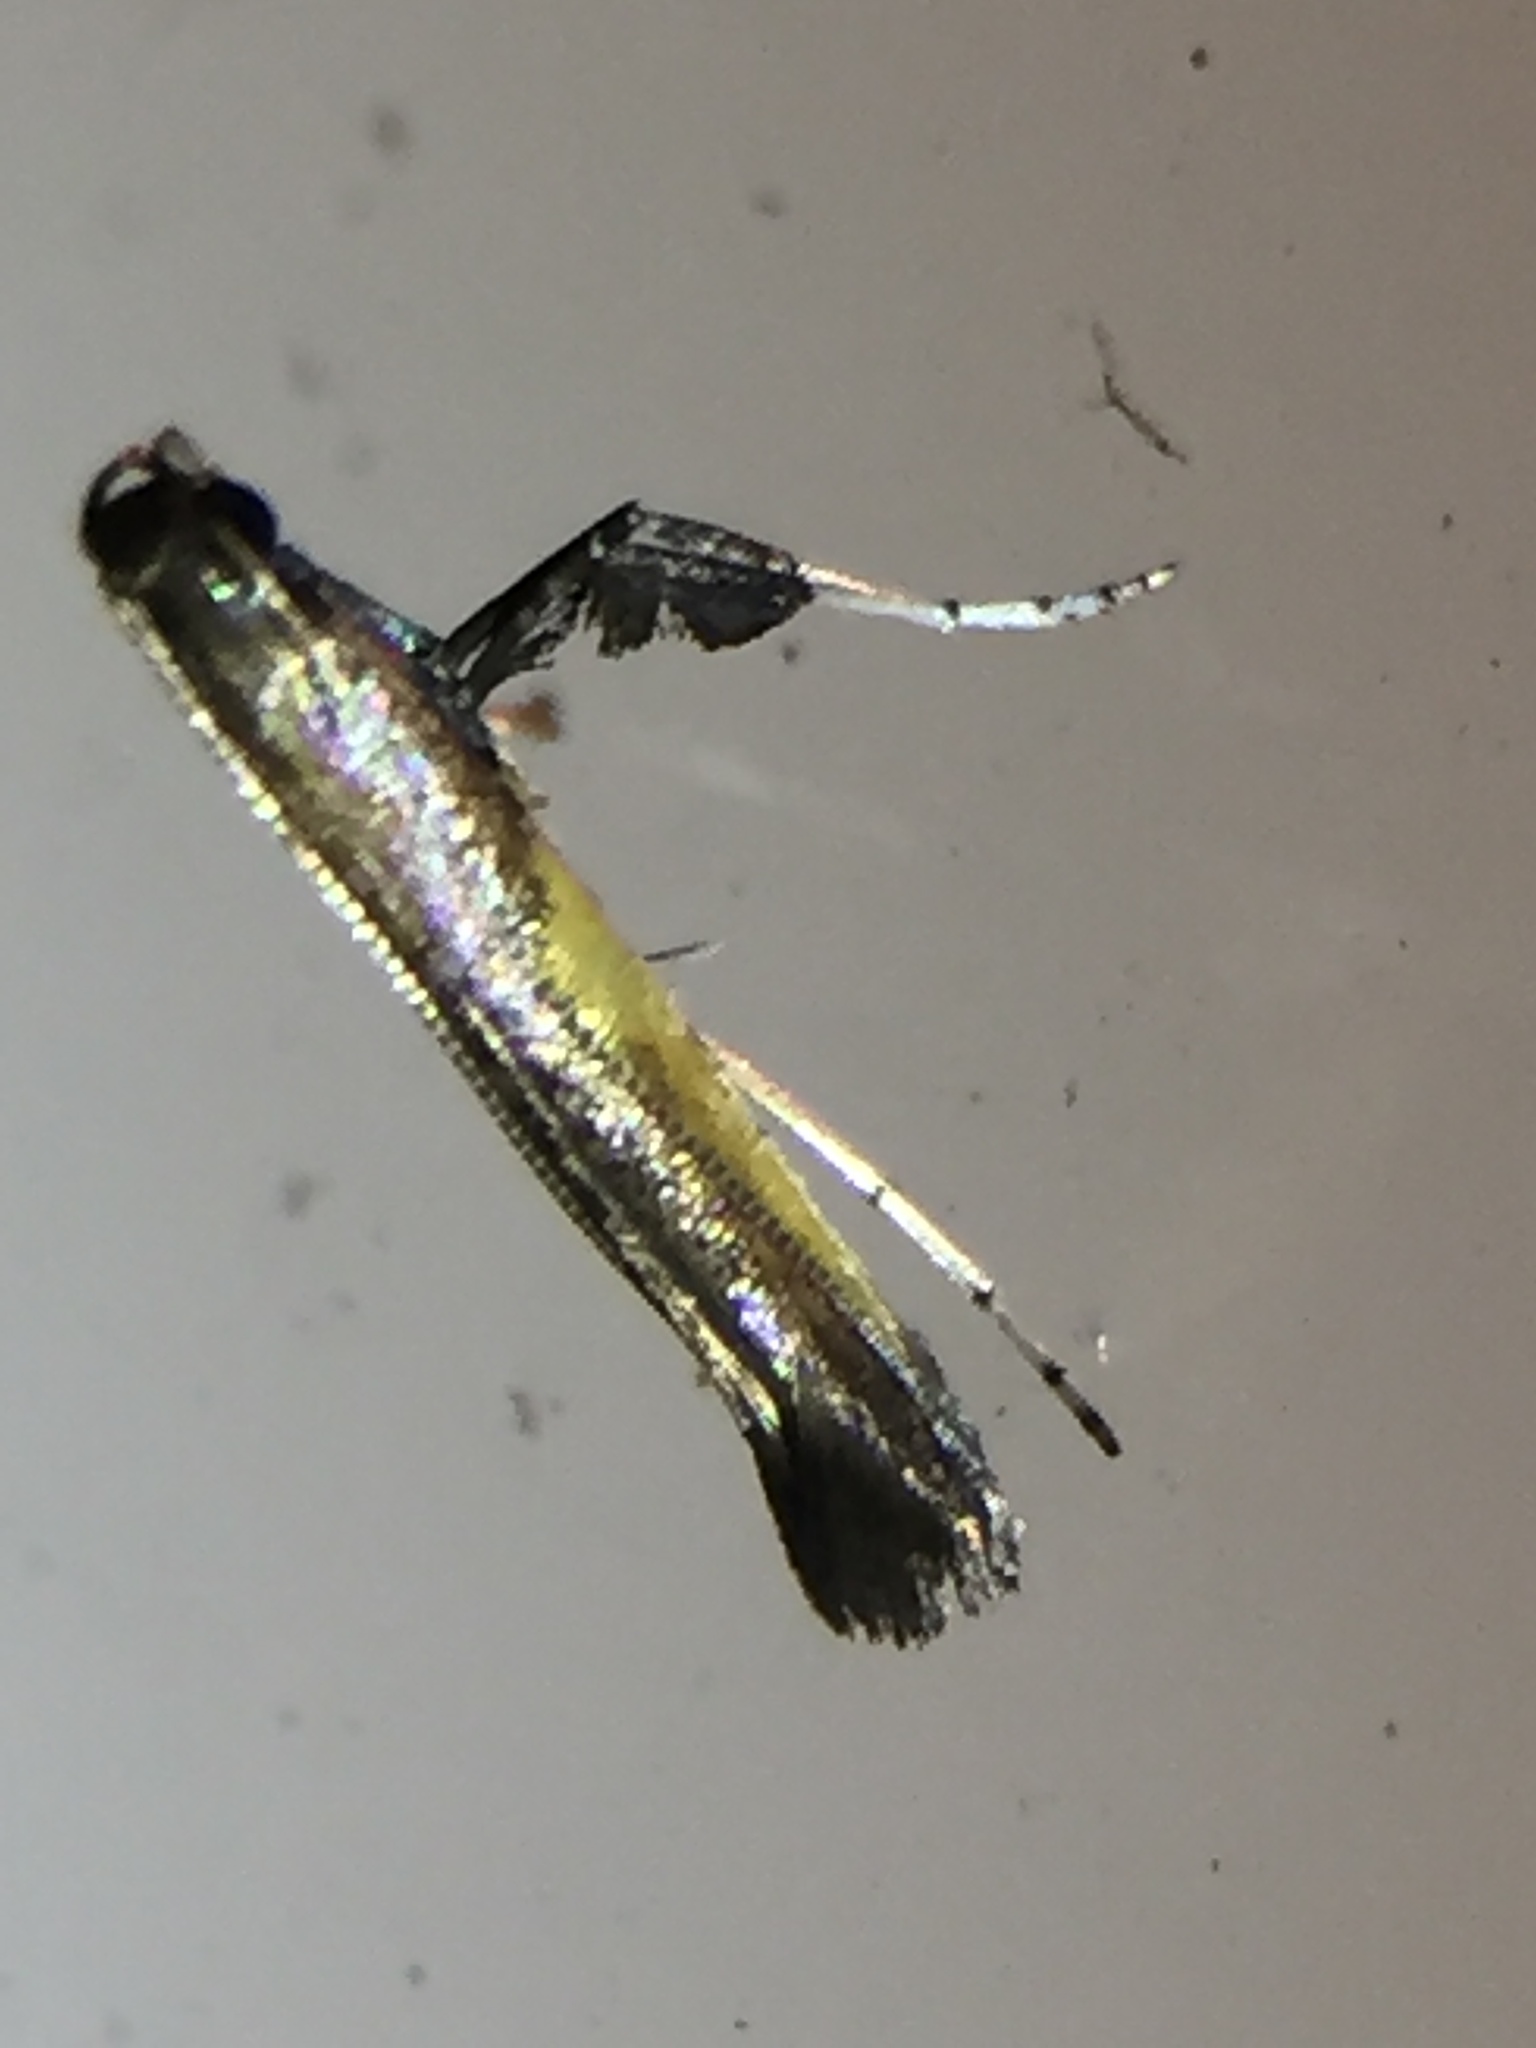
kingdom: Animalia
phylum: Arthropoda
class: Insecta
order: Lepidoptera
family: Gracillariidae
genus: Caloptilia
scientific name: Caloptilia azaleella
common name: Azalea leafminer
